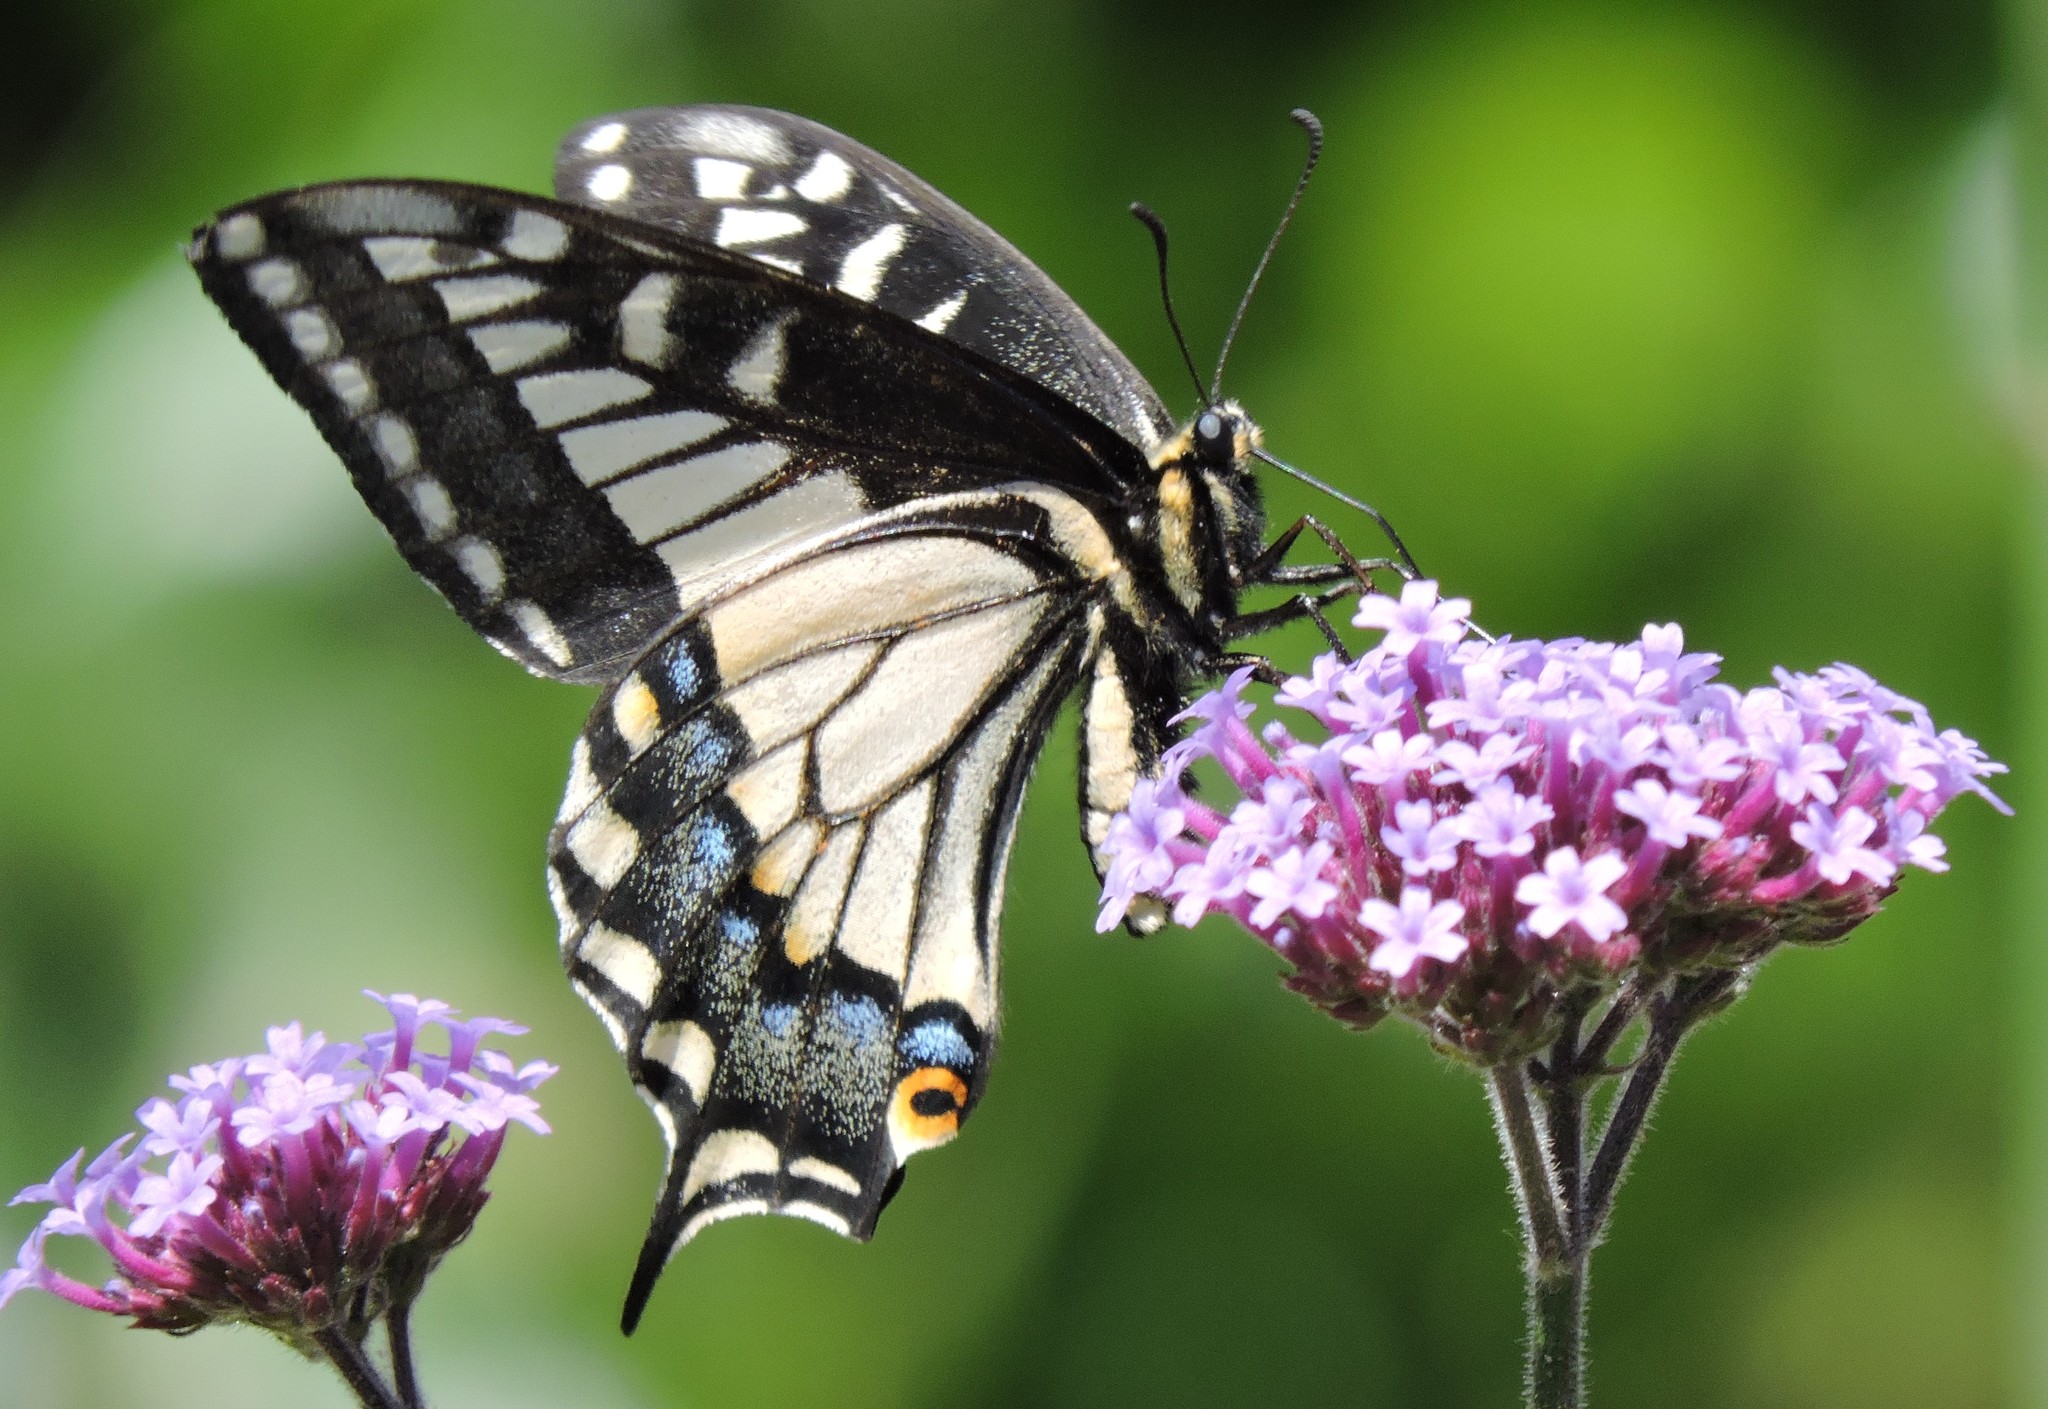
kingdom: Animalia
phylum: Arthropoda
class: Insecta
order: Lepidoptera
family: Papilionidae
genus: Papilio
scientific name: Papilio zelicaon
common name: Anise swallowtail
